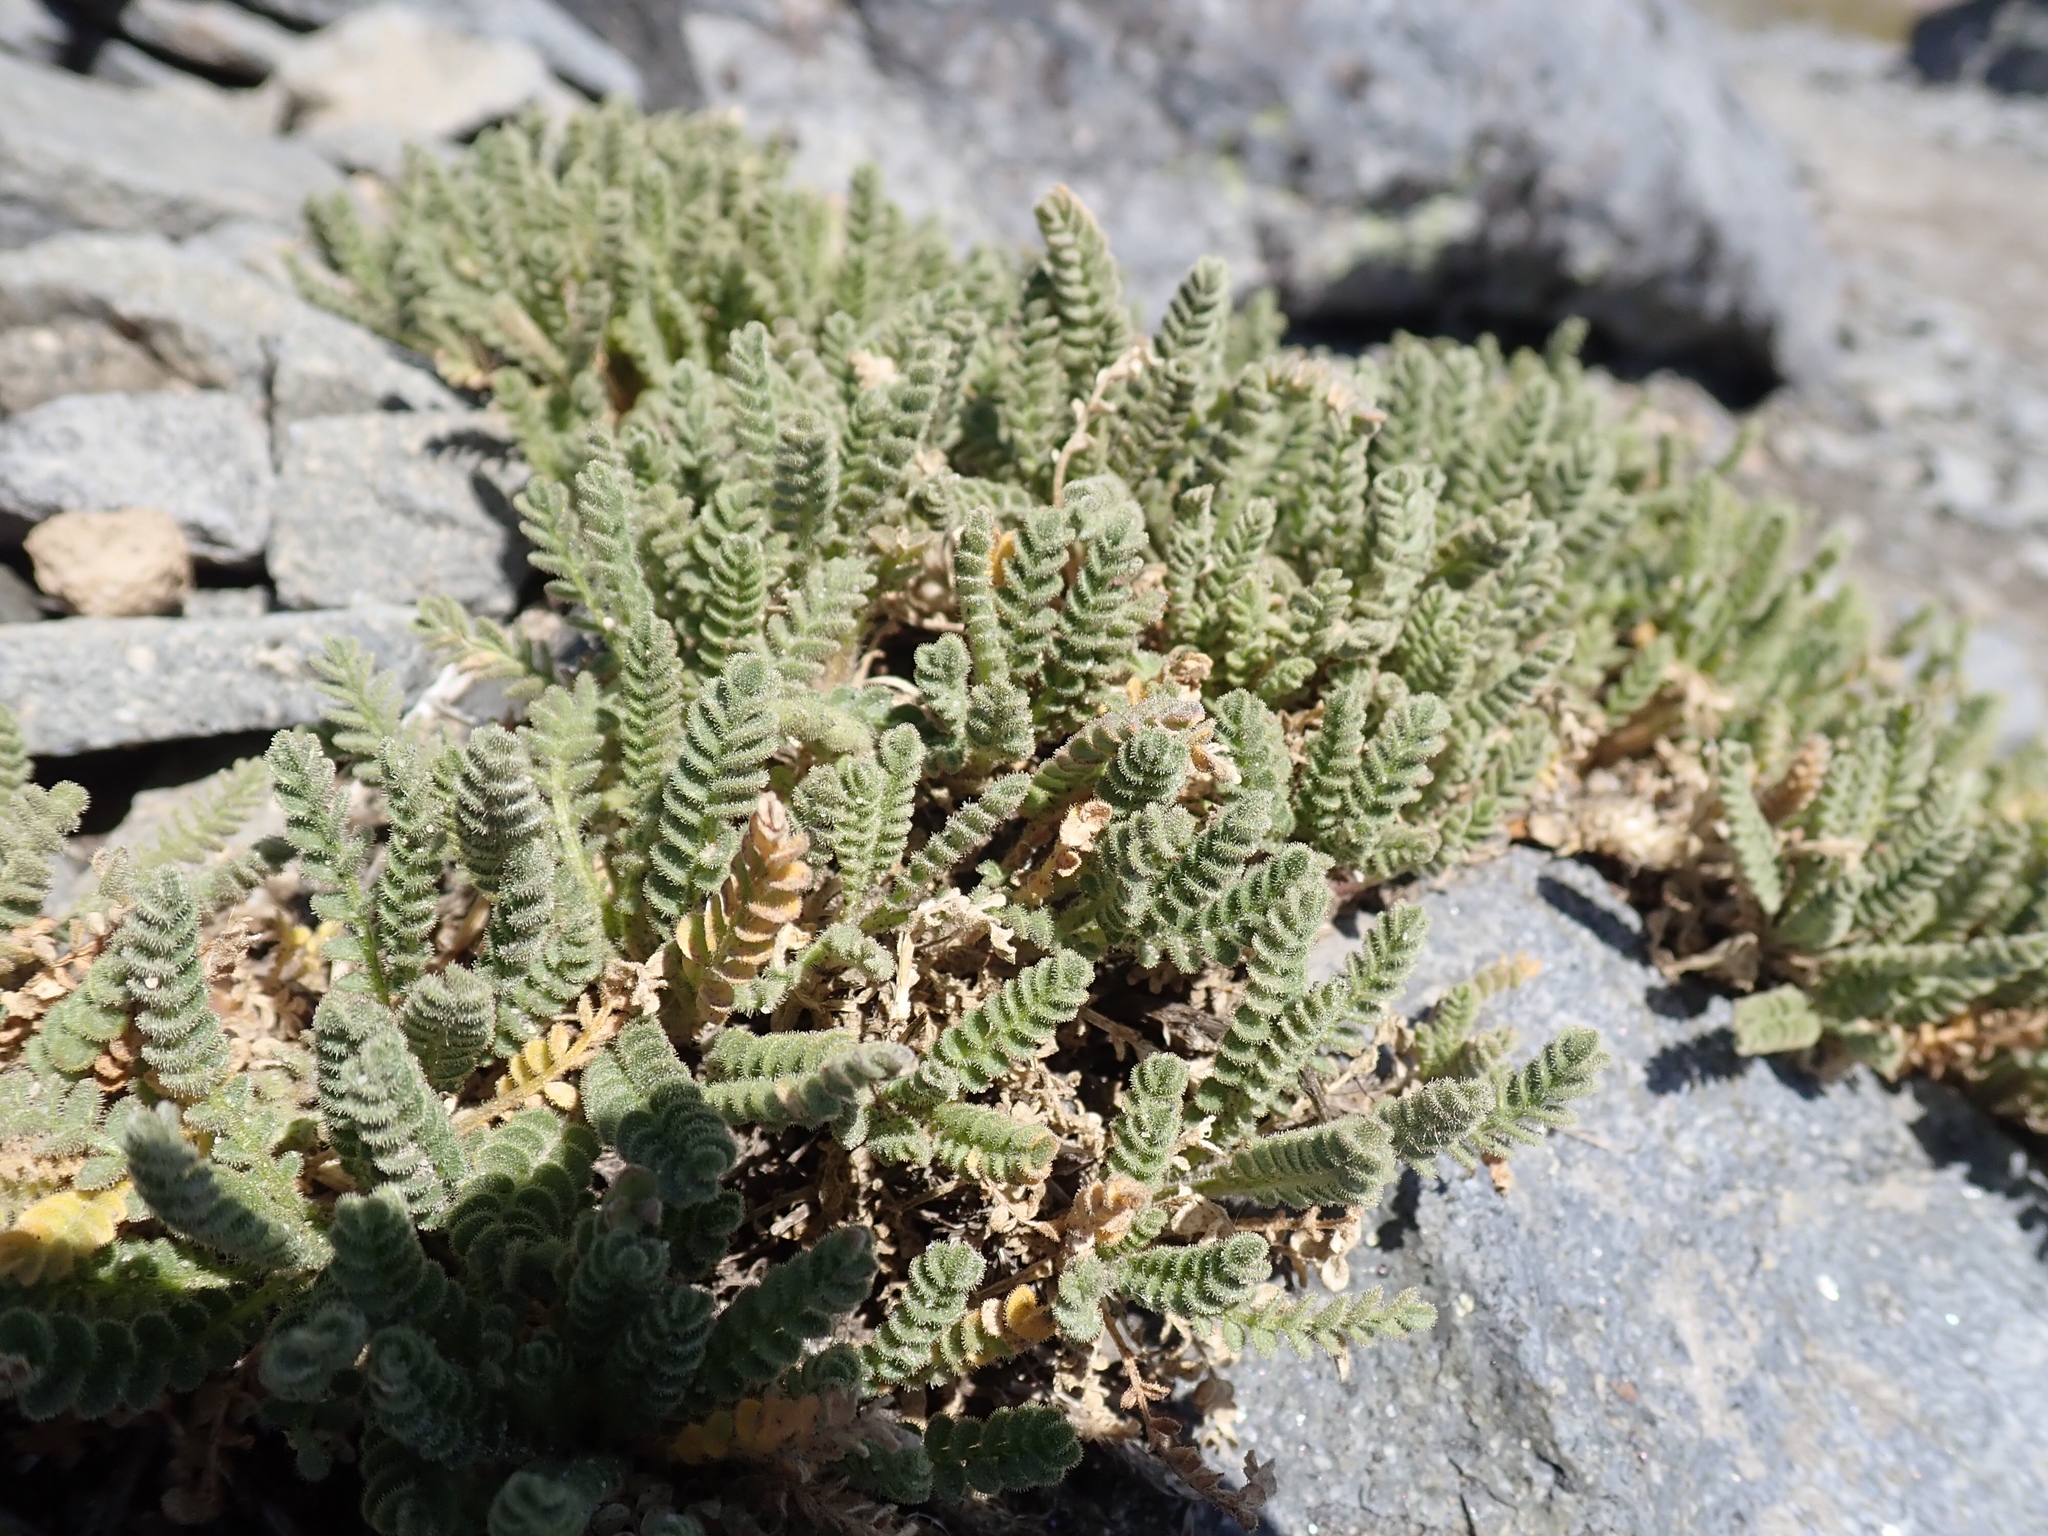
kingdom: Plantae
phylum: Tracheophyta
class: Magnoliopsida
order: Ericales
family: Polemoniaceae
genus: Polemonium
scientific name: Polemonium elegans
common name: Elegant jacob's-ladder
